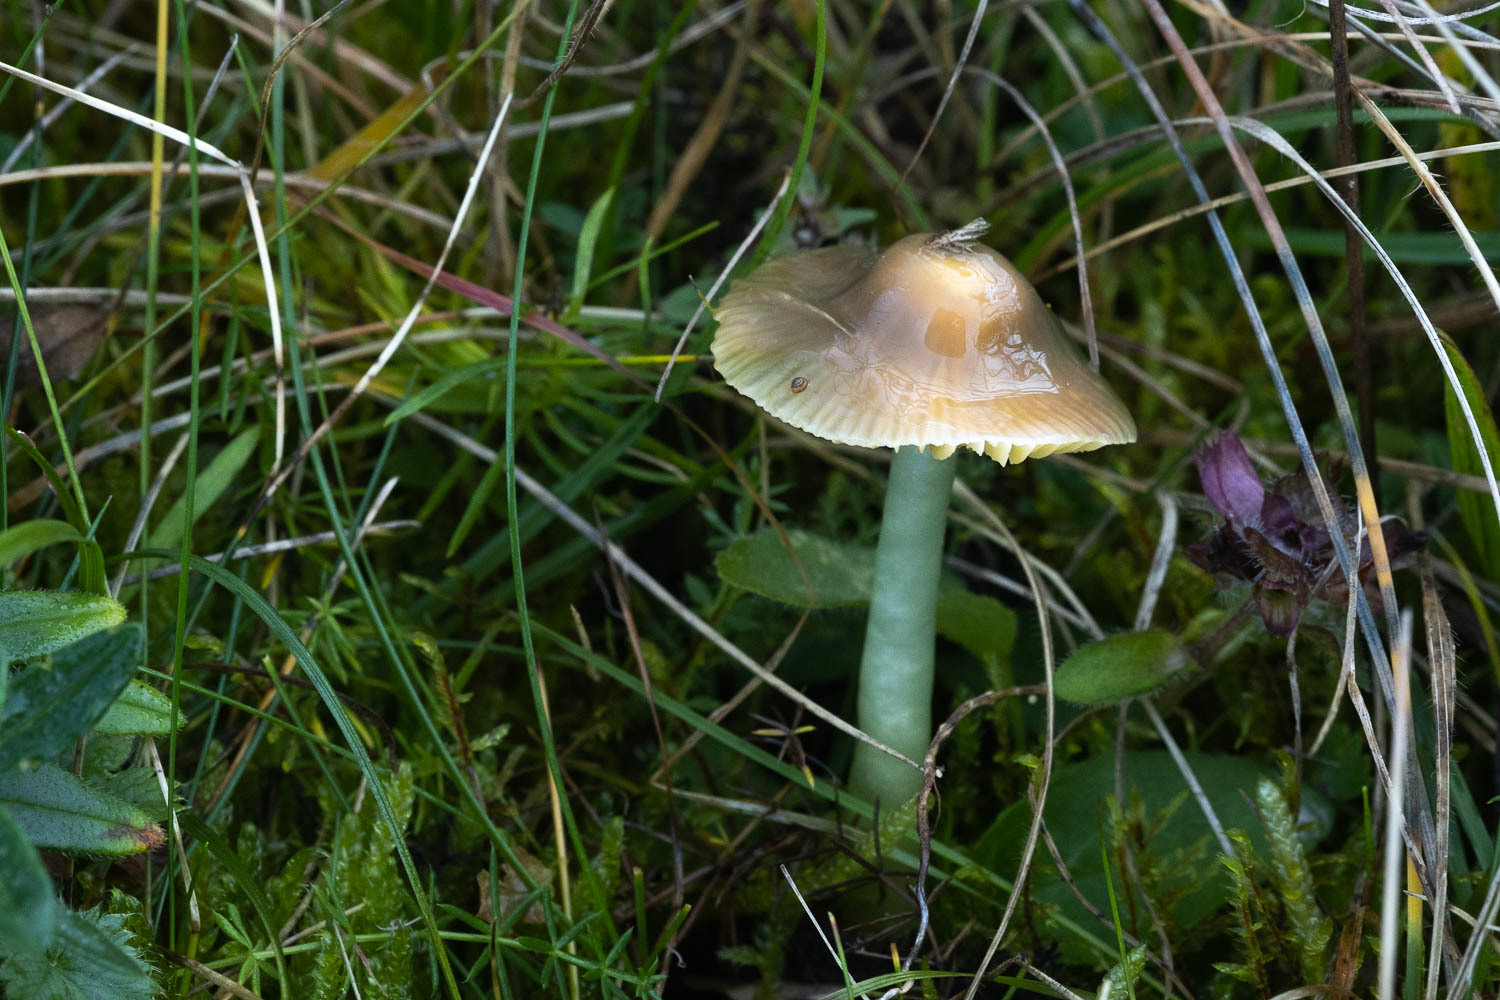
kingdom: Fungi
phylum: Basidiomycota
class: Agaricomycetes
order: Agaricales
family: Hygrophoraceae
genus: Gliophorus
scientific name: Gliophorus psittacinus
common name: Parrot wax-cap
